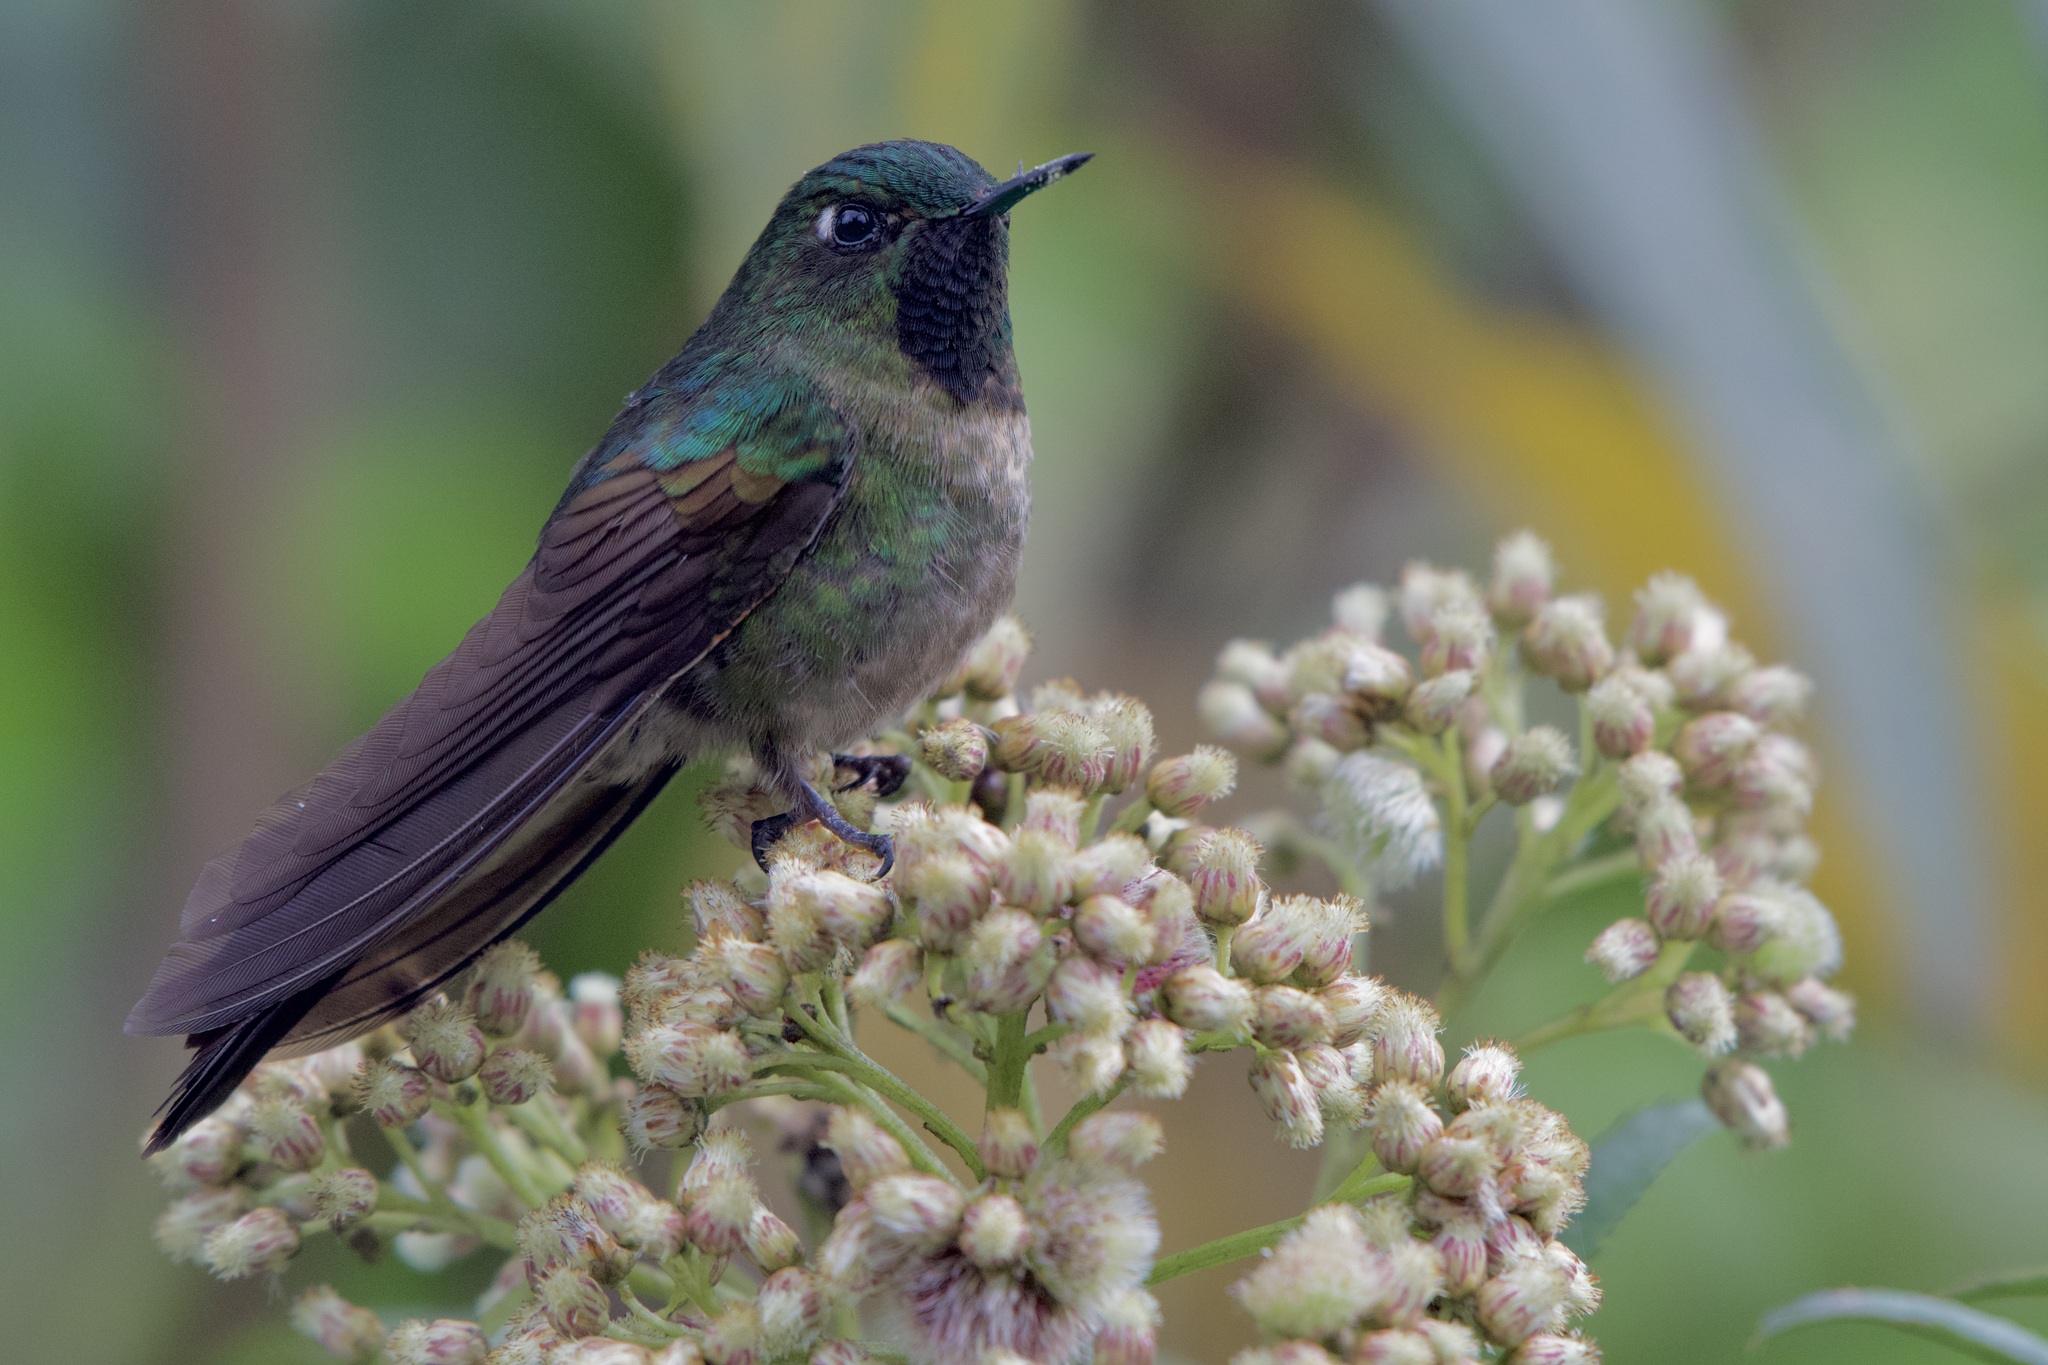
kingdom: Animalia
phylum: Chordata
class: Aves
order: Apodiformes
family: Trochilidae
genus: Metallura
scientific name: Metallura tyrianthina
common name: Tyrian metaltail
